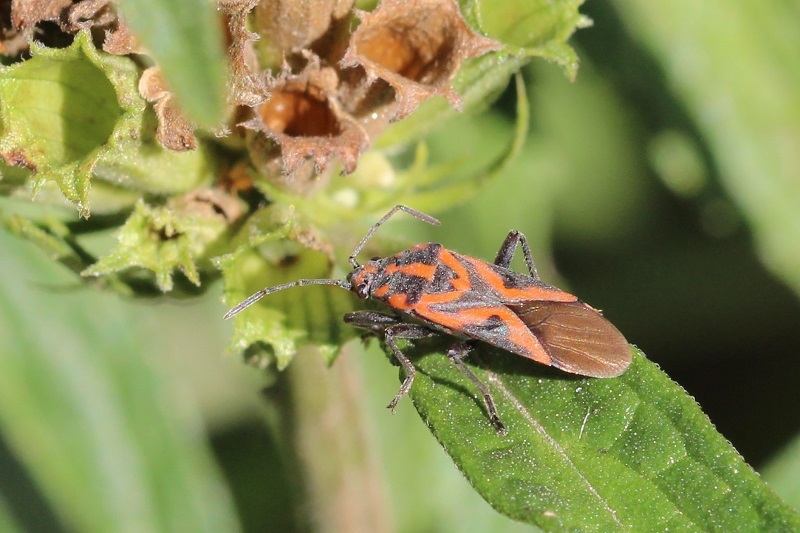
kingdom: Animalia
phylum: Arthropoda
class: Insecta
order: Hemiptera
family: Lygaeidae
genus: Spilostethus
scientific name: Spilostethus furcula
